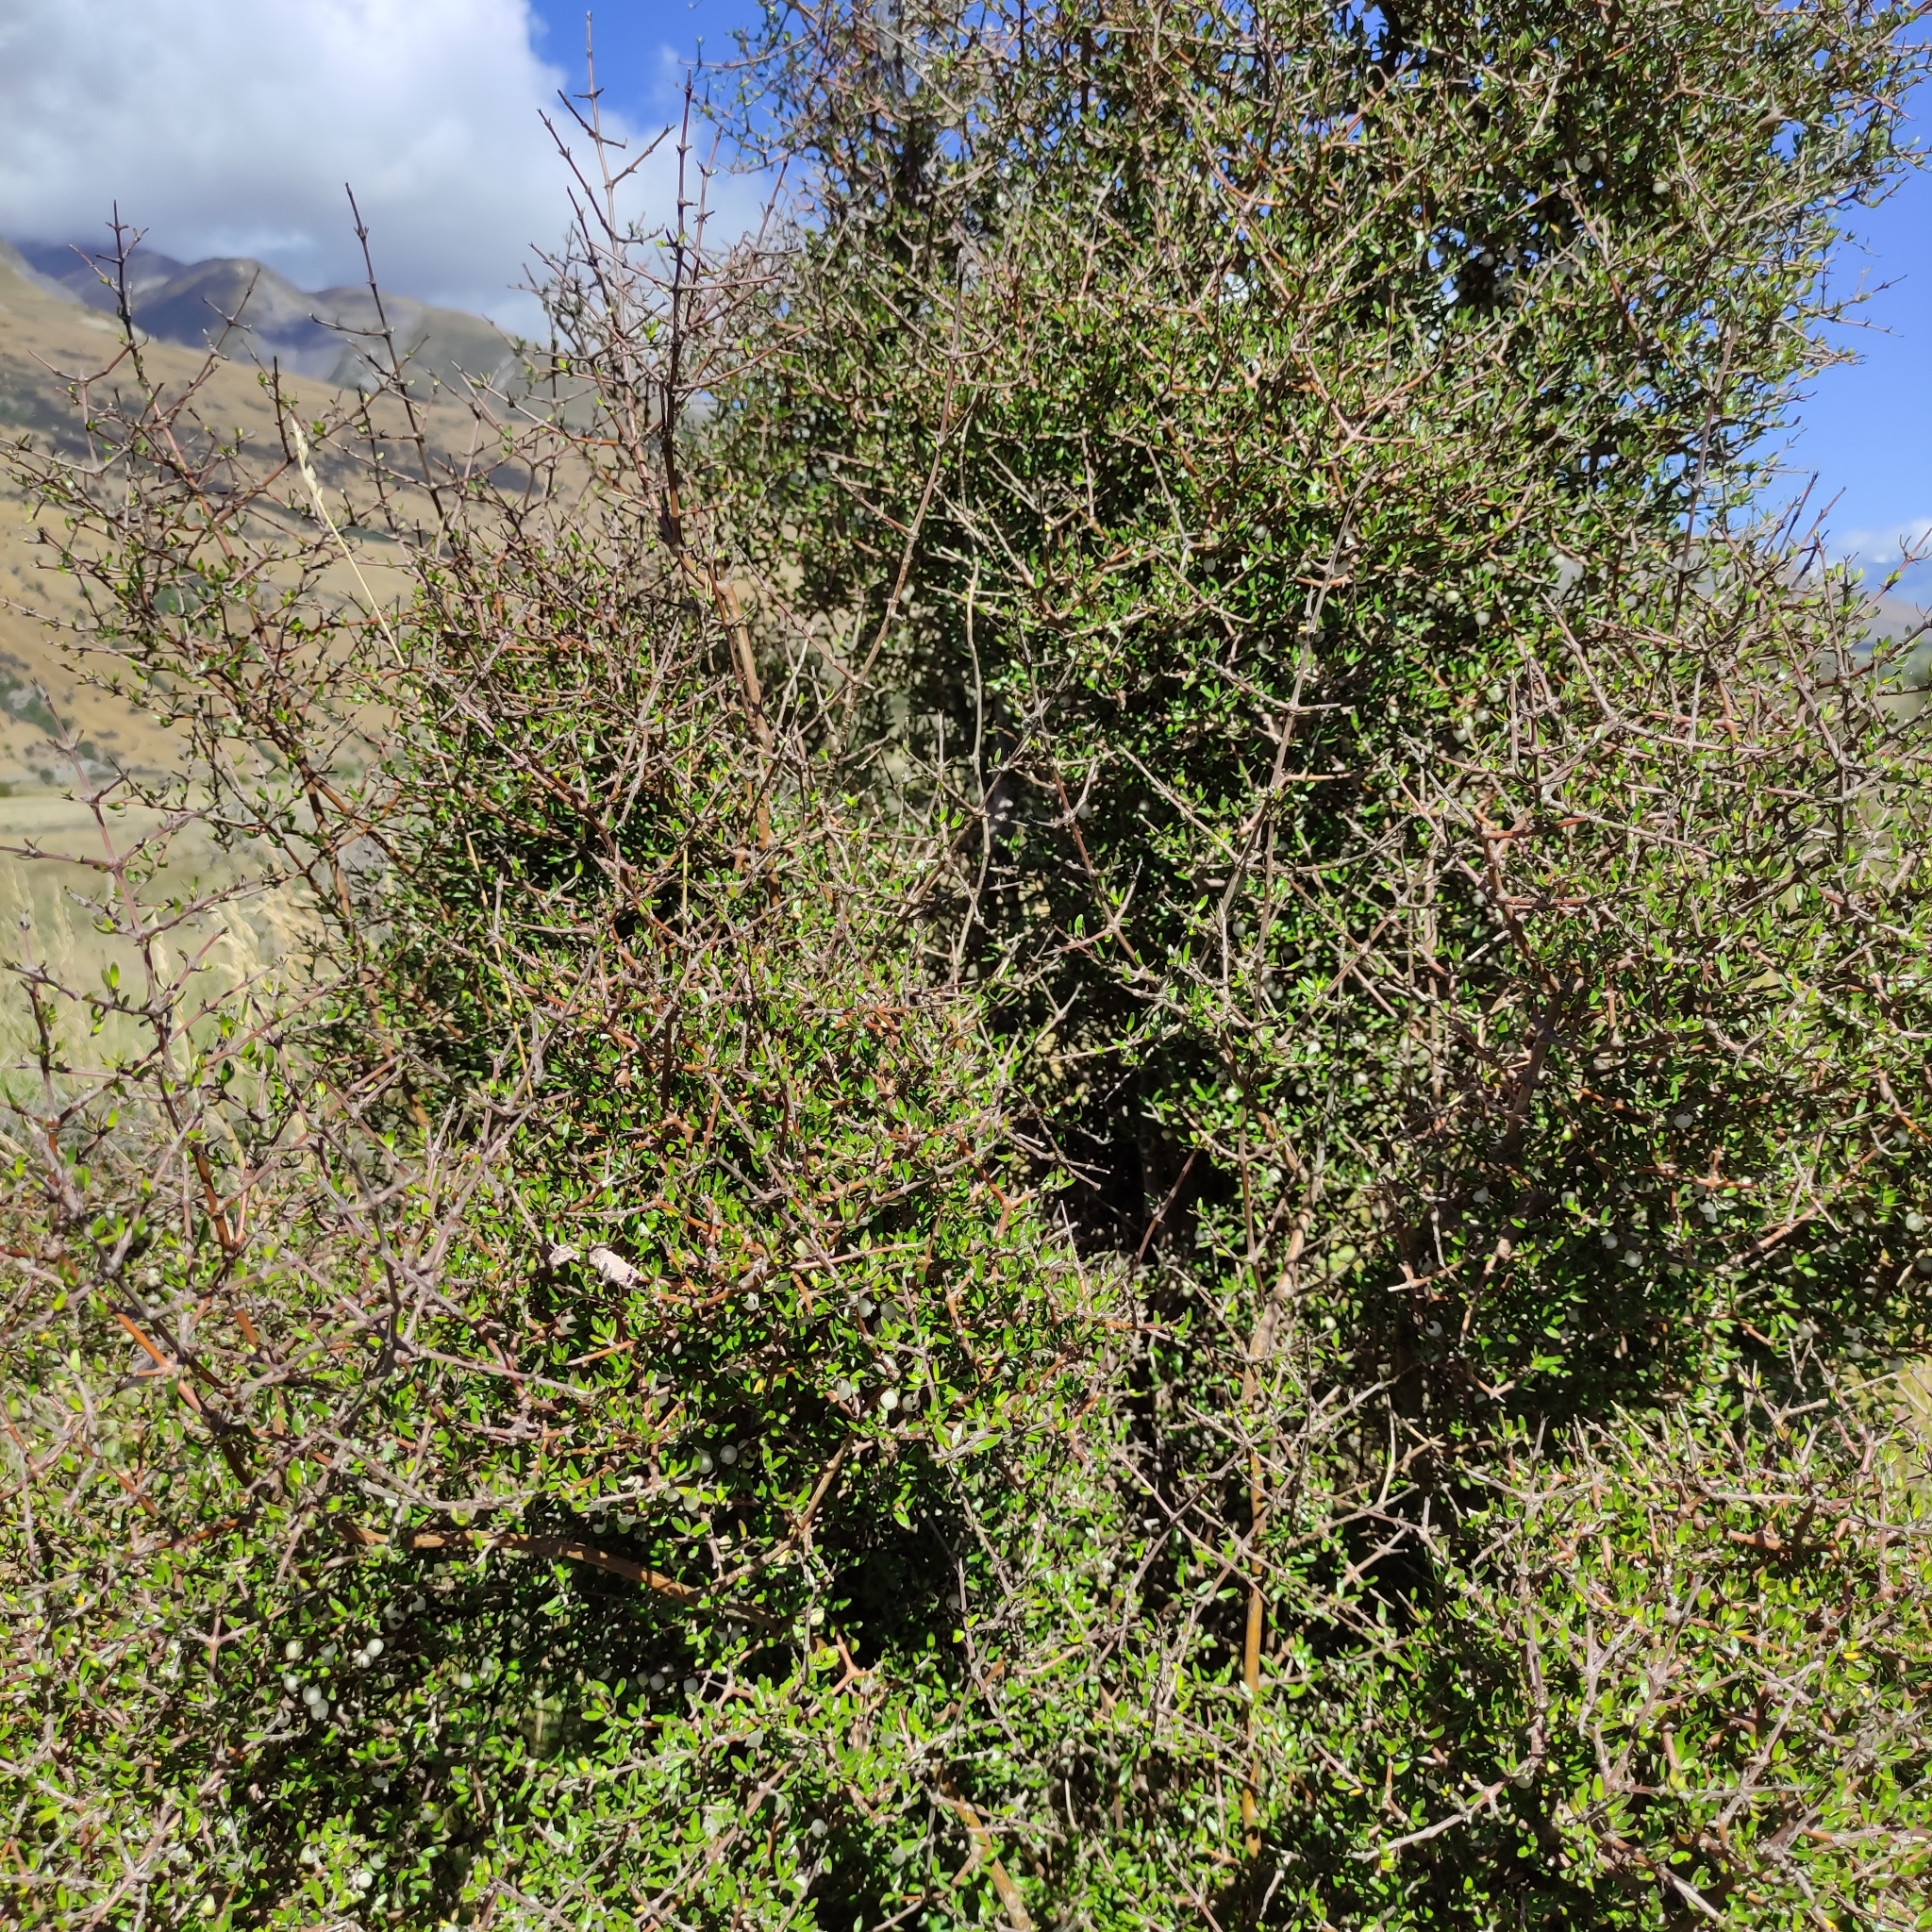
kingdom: Plantae
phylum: Tracheophyta
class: Magnoliopsida
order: Gentianales
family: Rubiaceae
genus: Coprosma
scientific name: Coprosma propinqua
